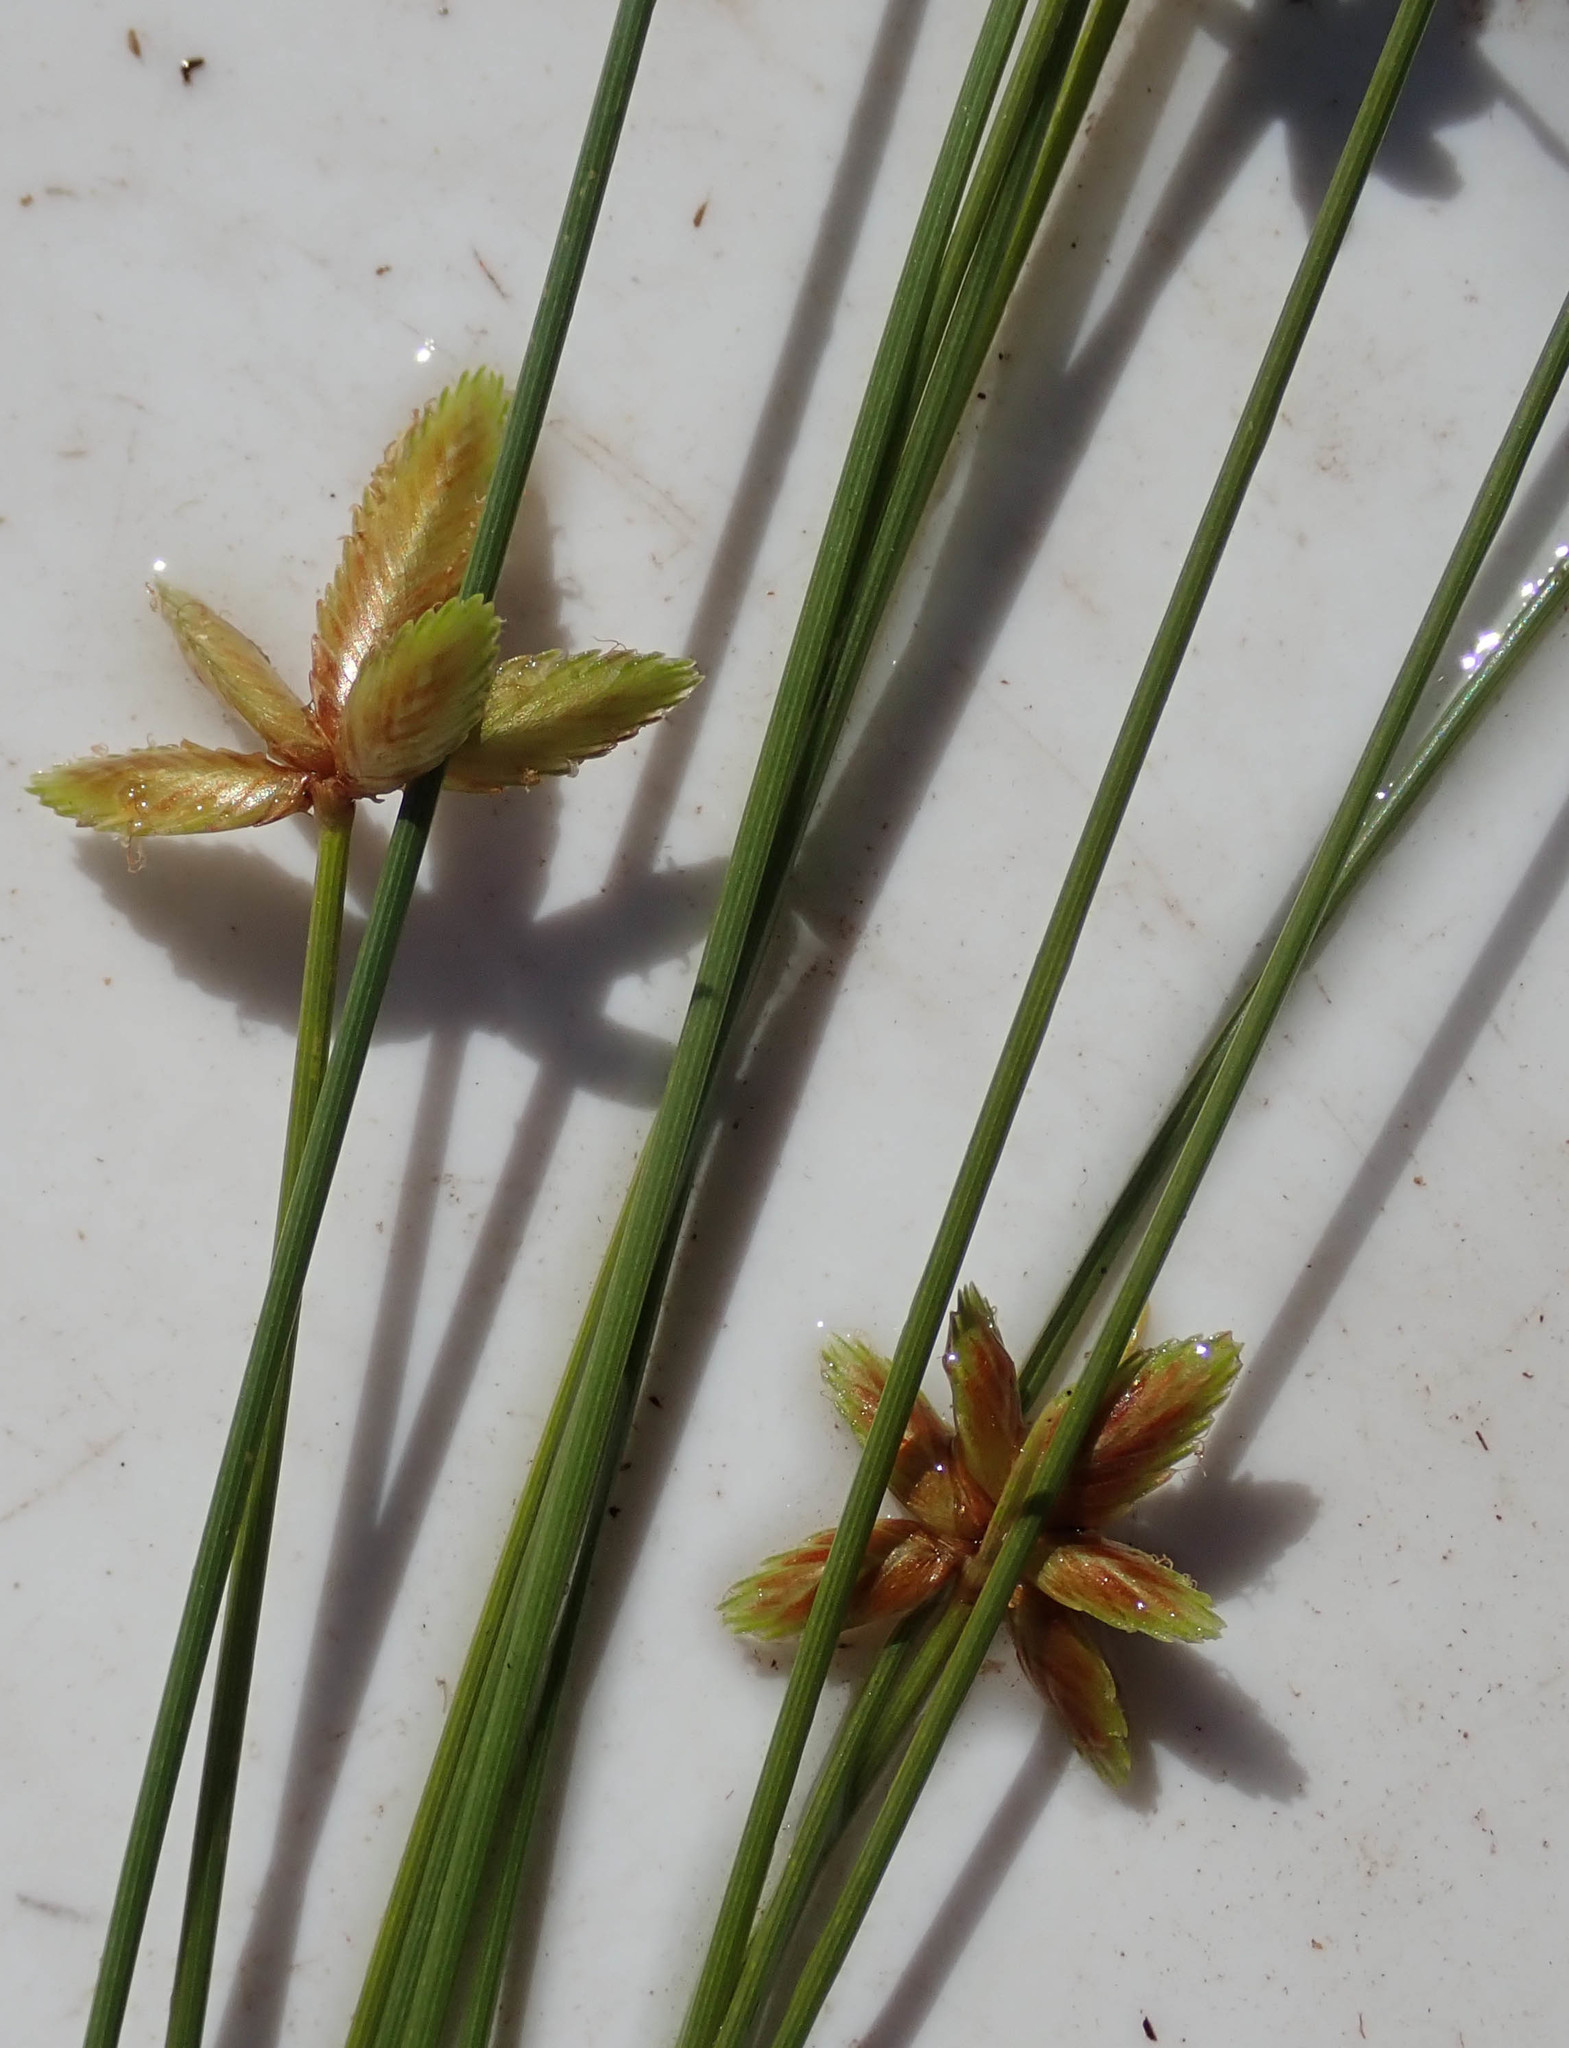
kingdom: Plantae
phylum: Tracheophyta
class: Liliopsida
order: Poales
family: Cyperaceae
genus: Cyperus
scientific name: Cyperus pectinatus
